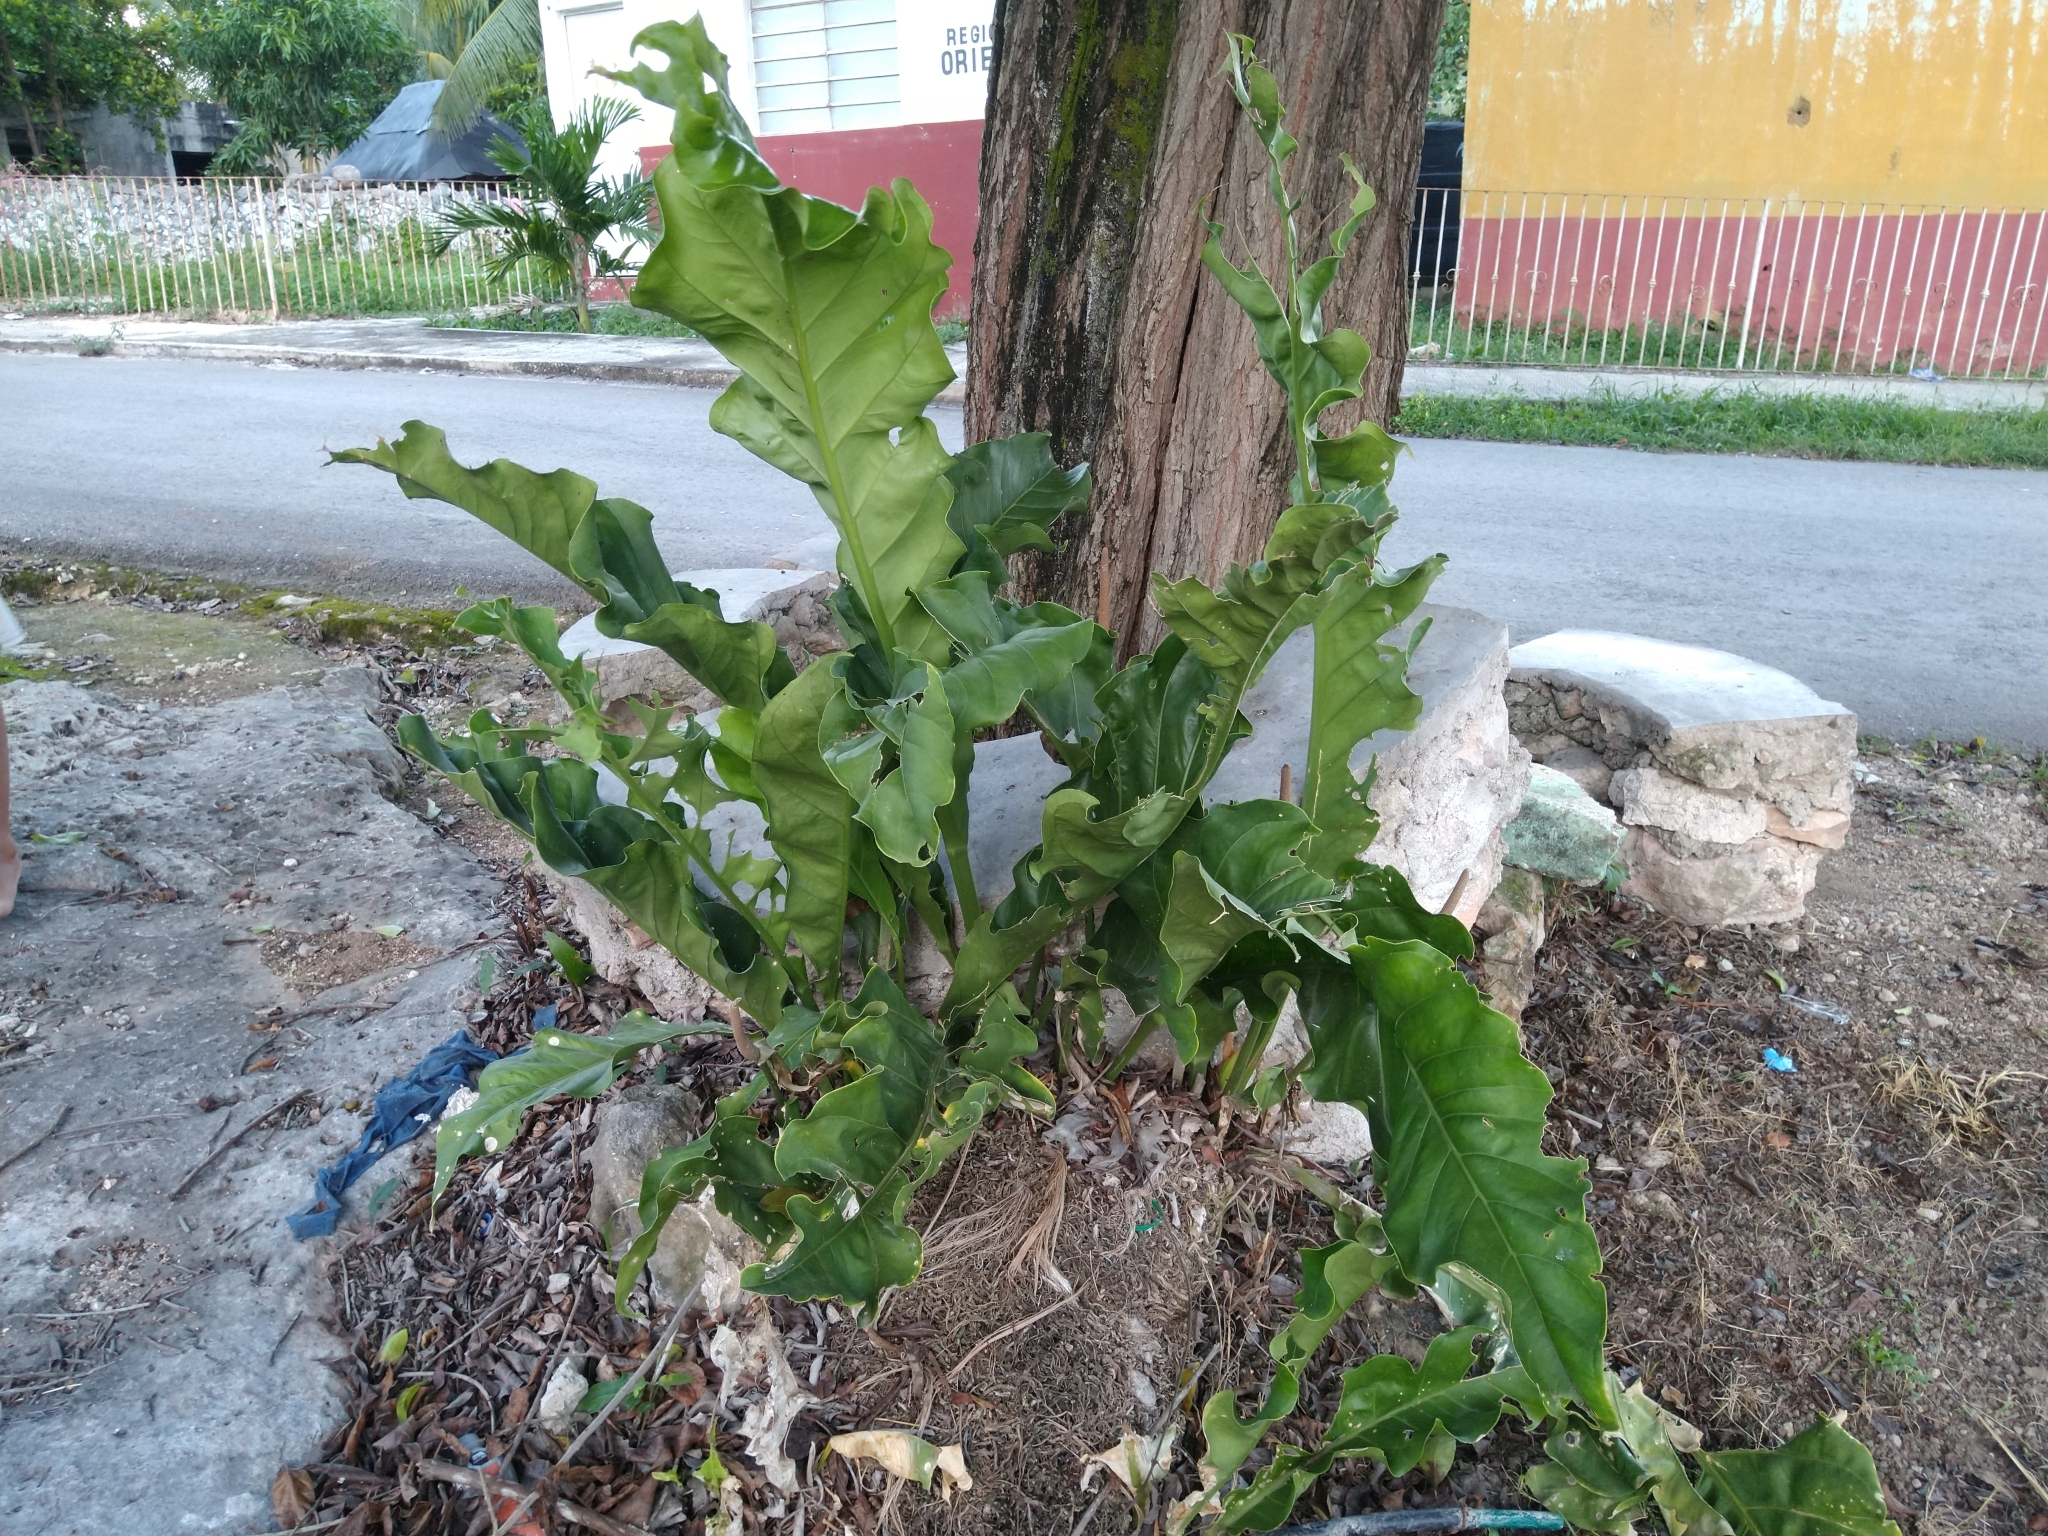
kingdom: Plantae
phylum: Tracheophyta
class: Liliopsida
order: Alismatales
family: Araceae
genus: Anthurium
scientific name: Anthurium schlechtendalii
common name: Laceleaf
